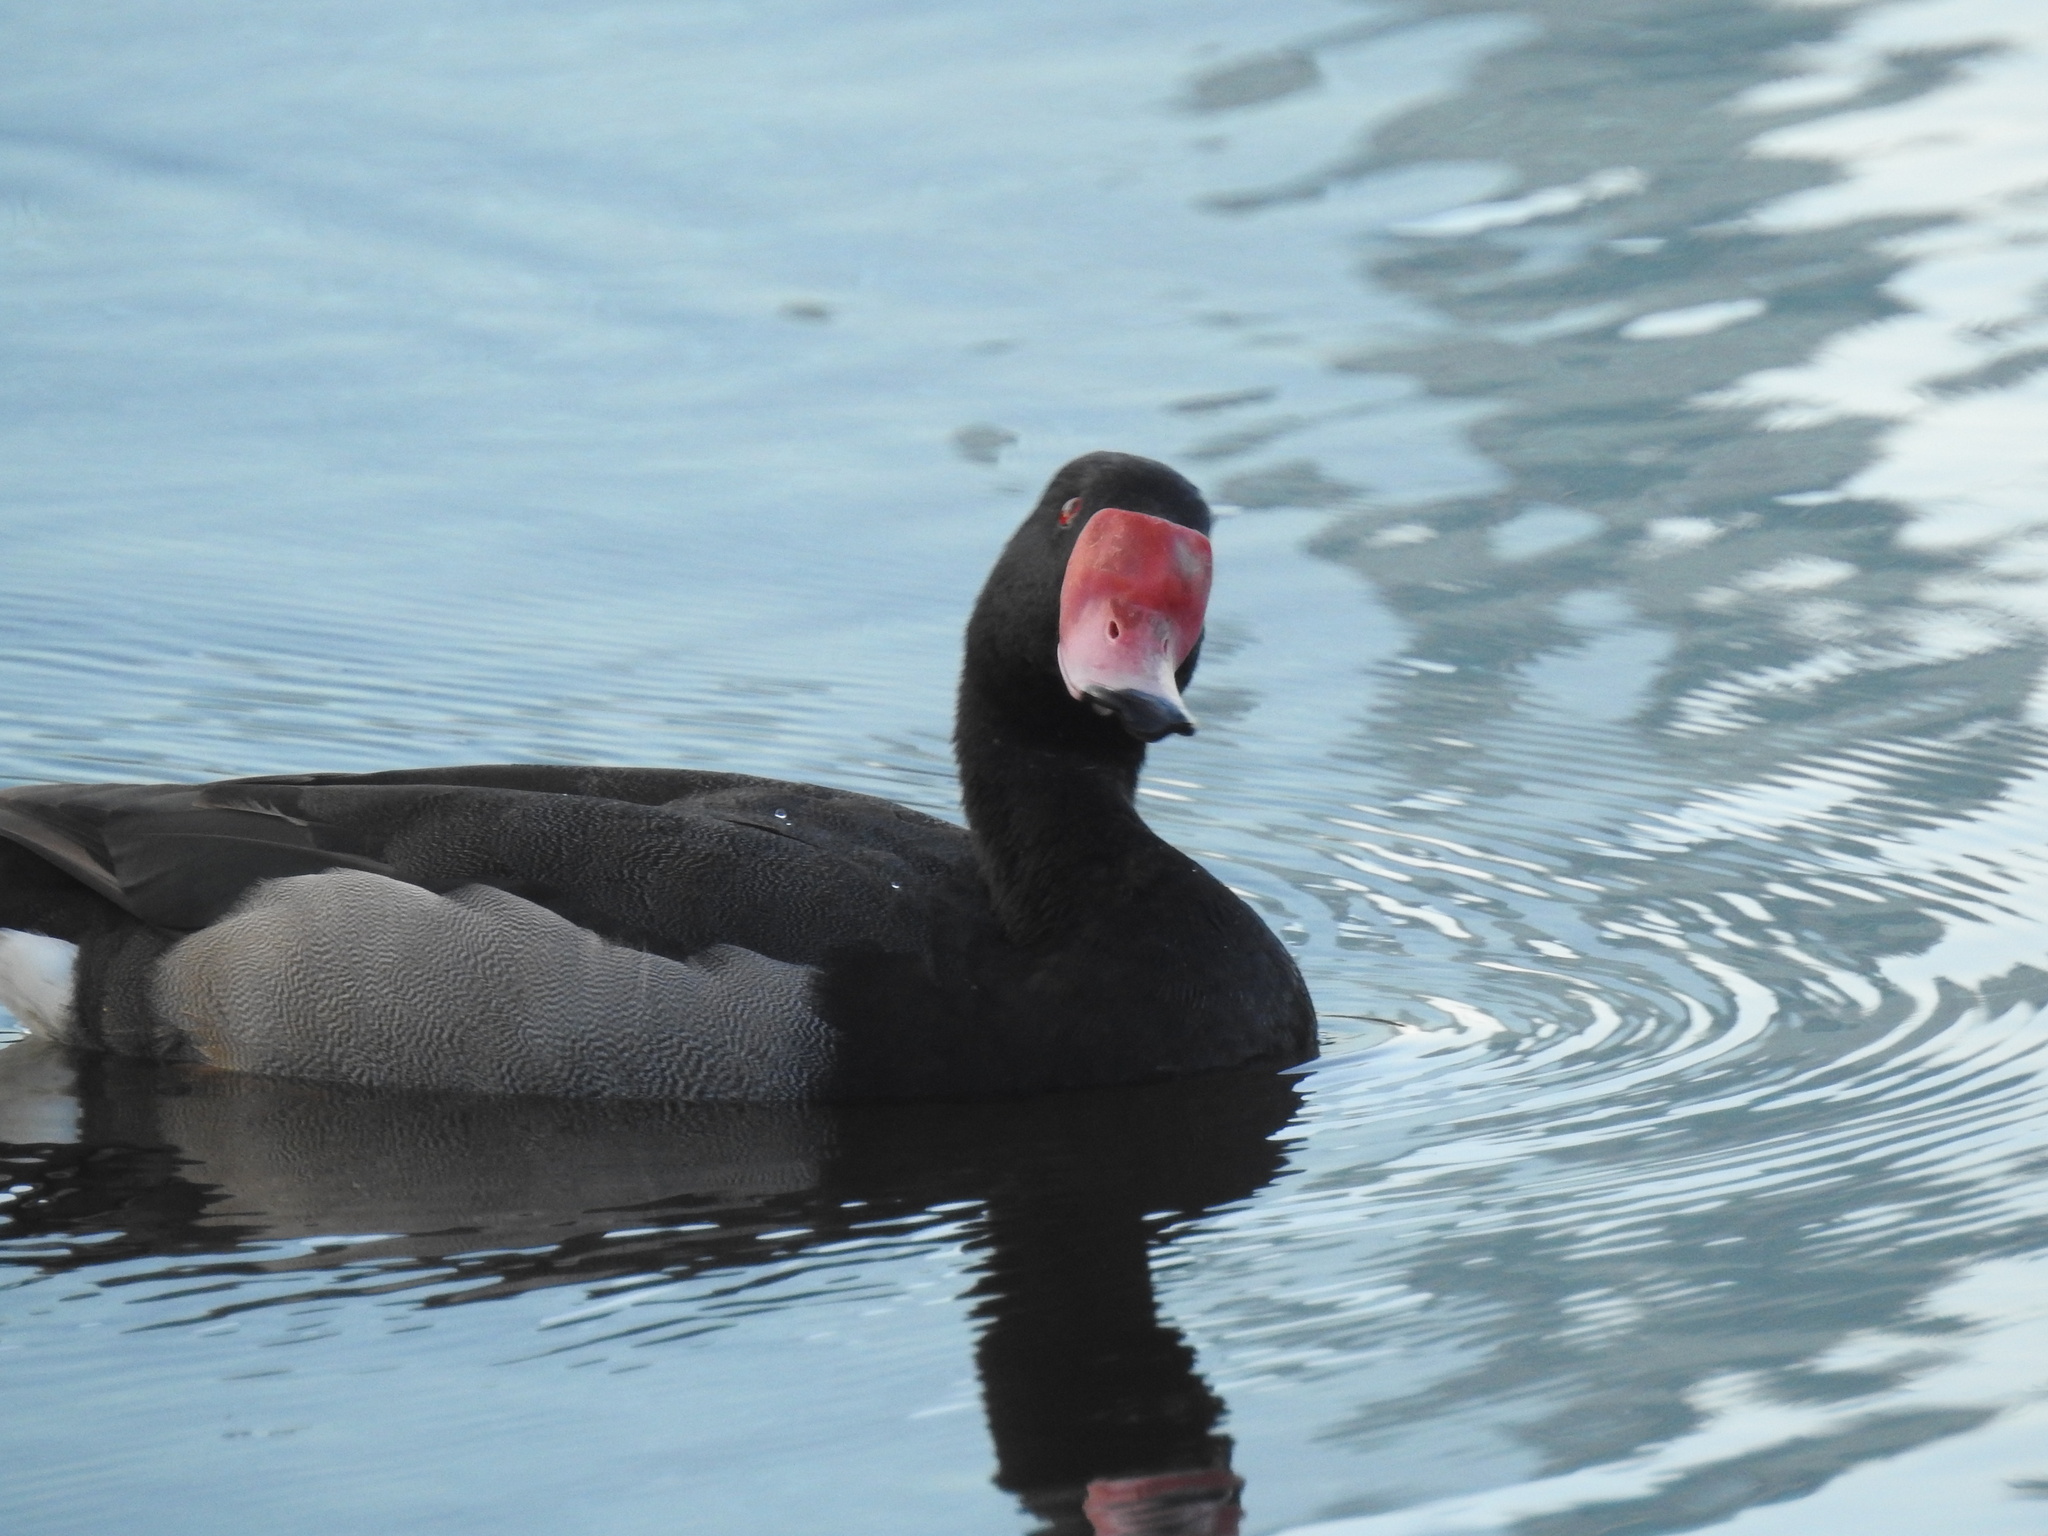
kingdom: Animalia
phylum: Chordata
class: Aves
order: Anseriformes
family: Anatidae
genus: Netta
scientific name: Netta peposaca
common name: Rosy-billed pochard
